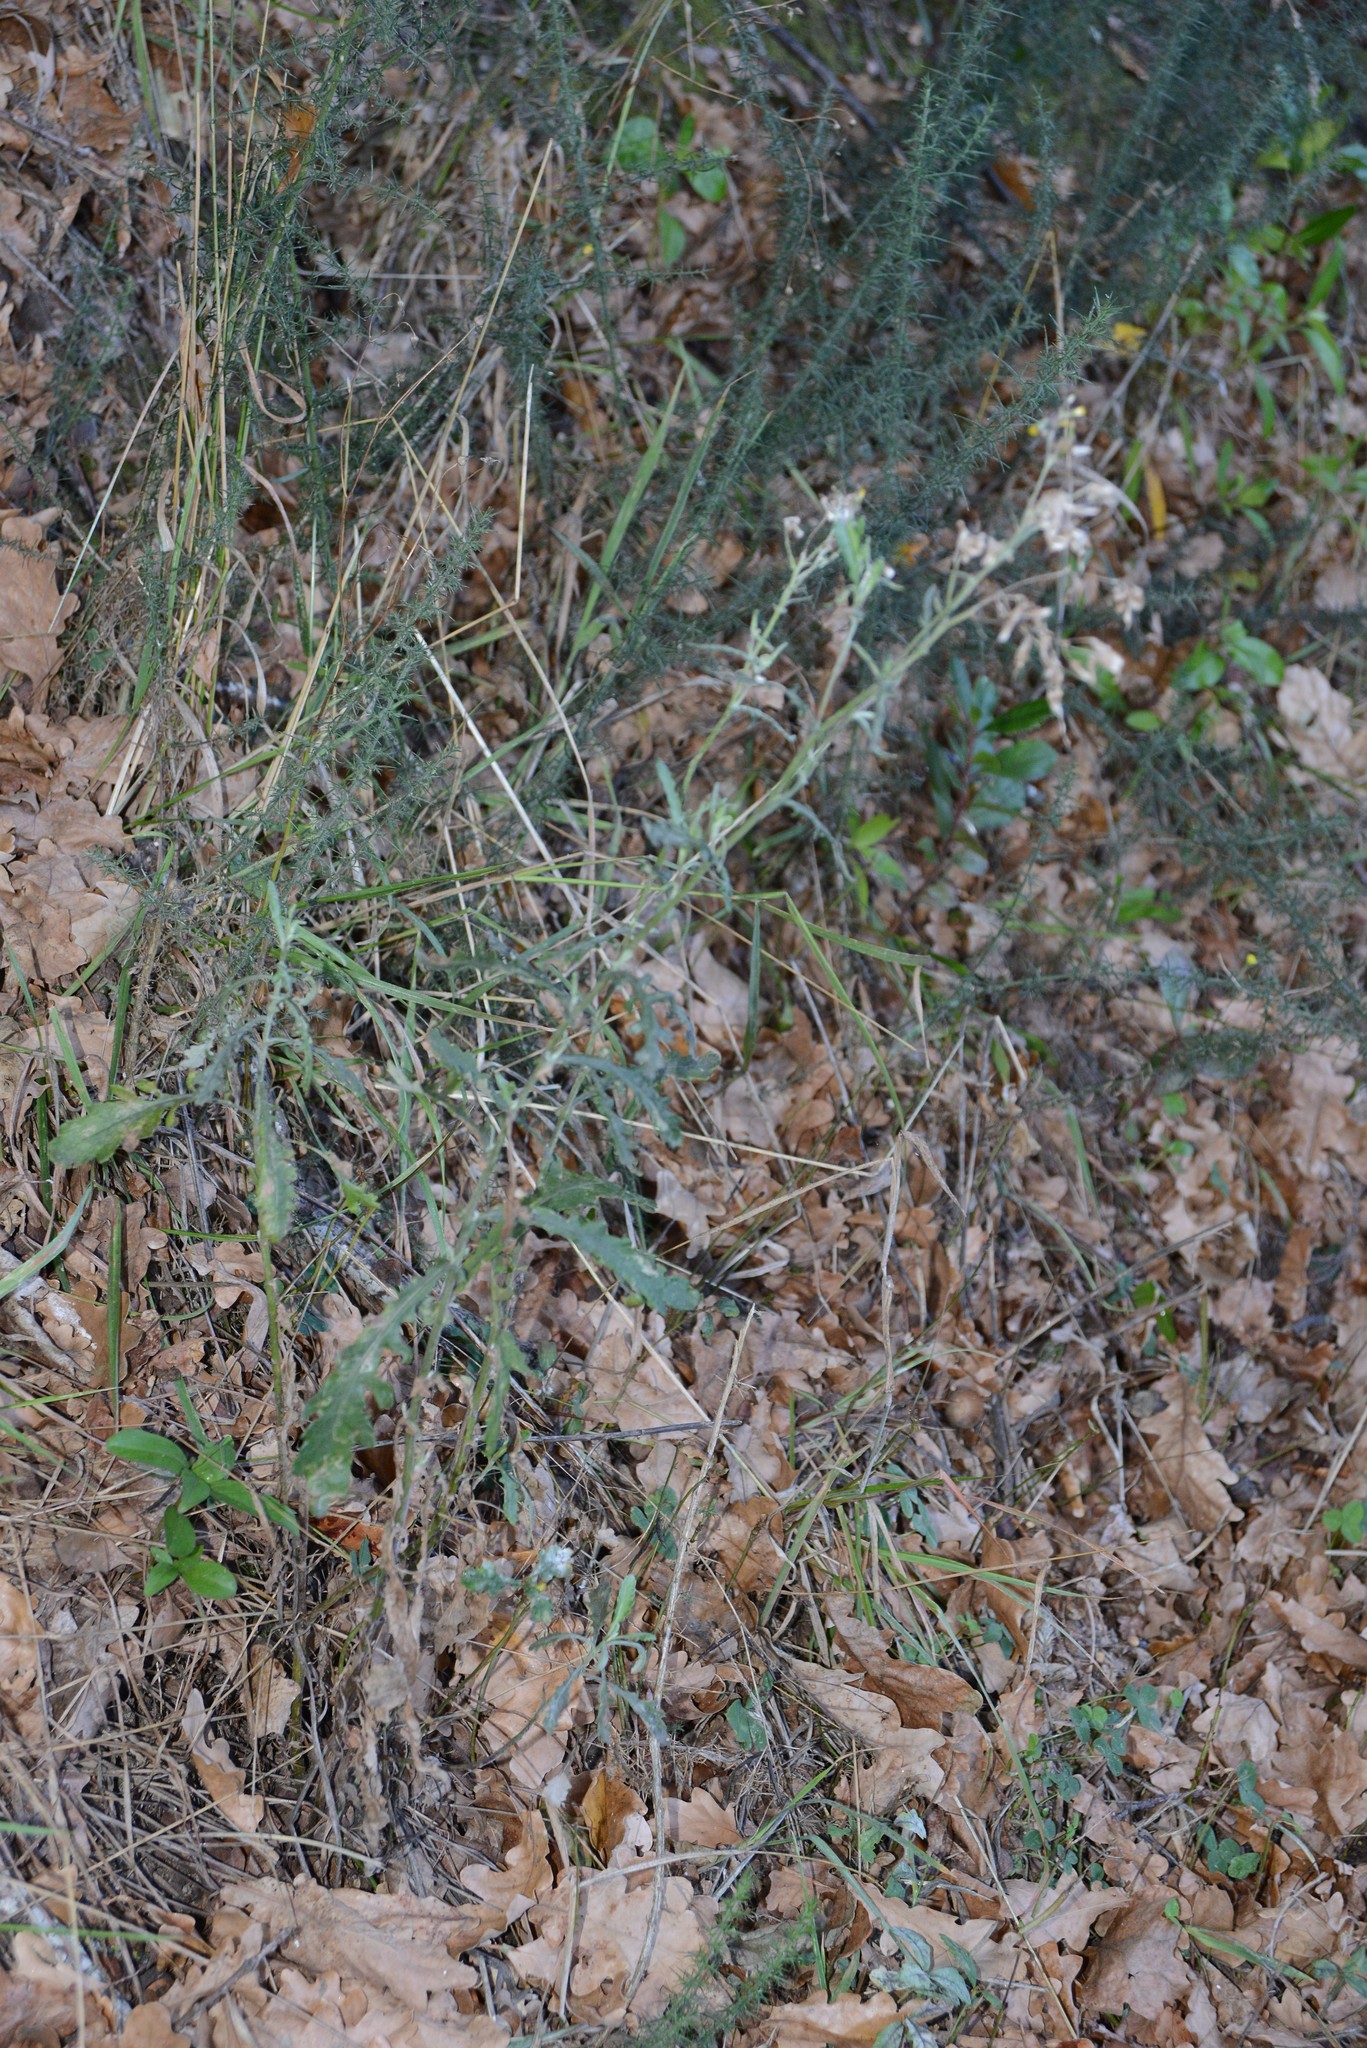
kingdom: Plantae
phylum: Tracheophyta
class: Magnoliopsida
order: Asterales
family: Asteraceae
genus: Senecio
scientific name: Senecio glomeratus
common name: Cutleaf burnweed
